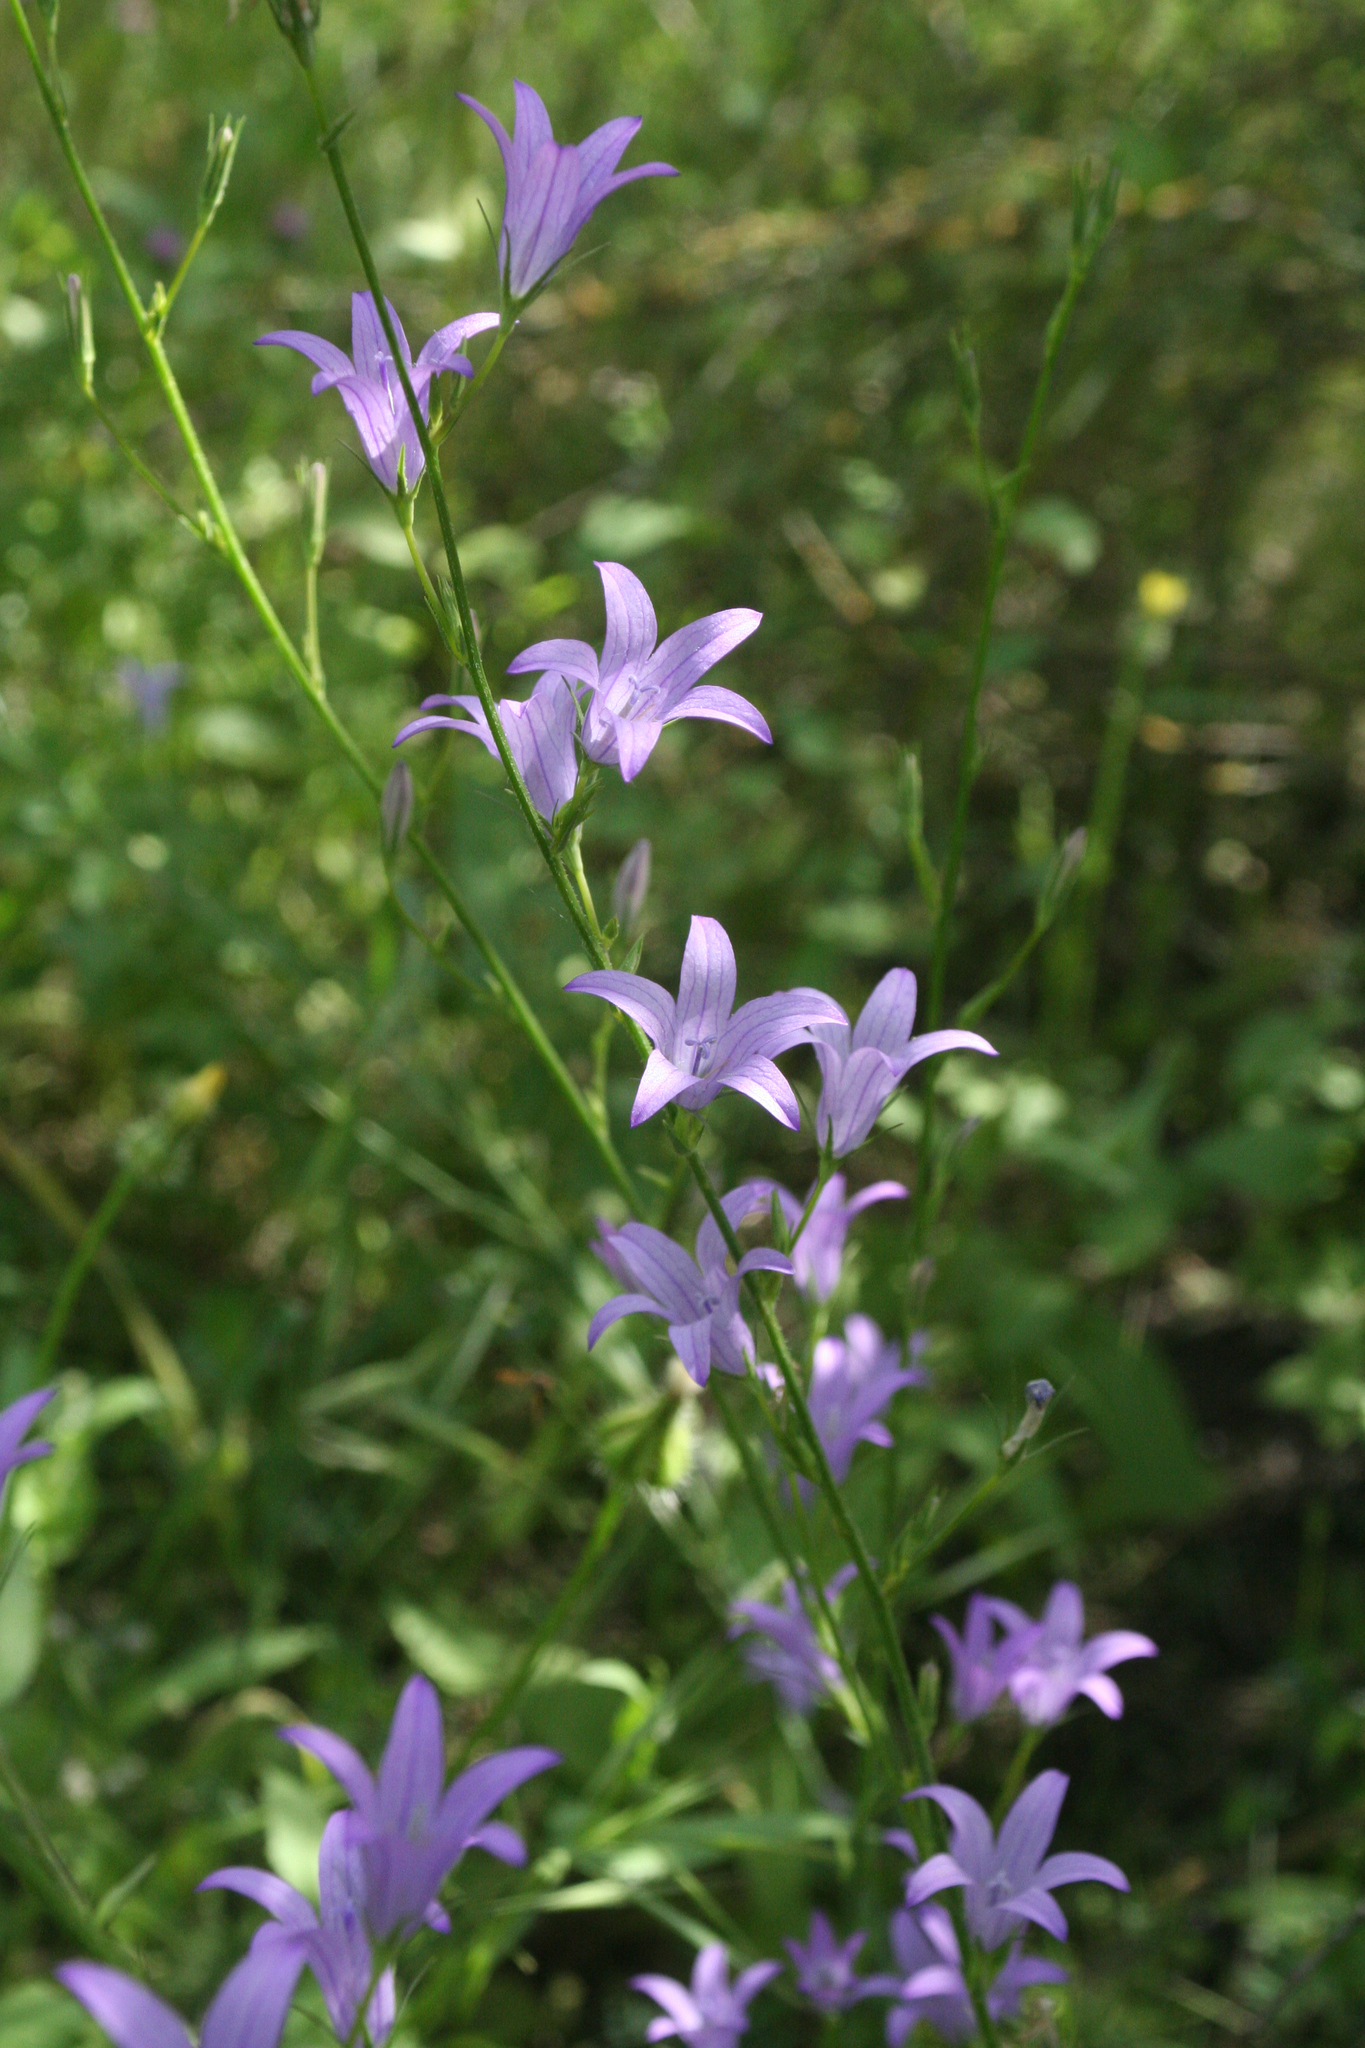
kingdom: Plantae
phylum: Tracheophyta
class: Magnoliopsida
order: Asterales
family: Campanulaceae
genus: Campanula
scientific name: Campanula rapunculus
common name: Rampion bellflower
